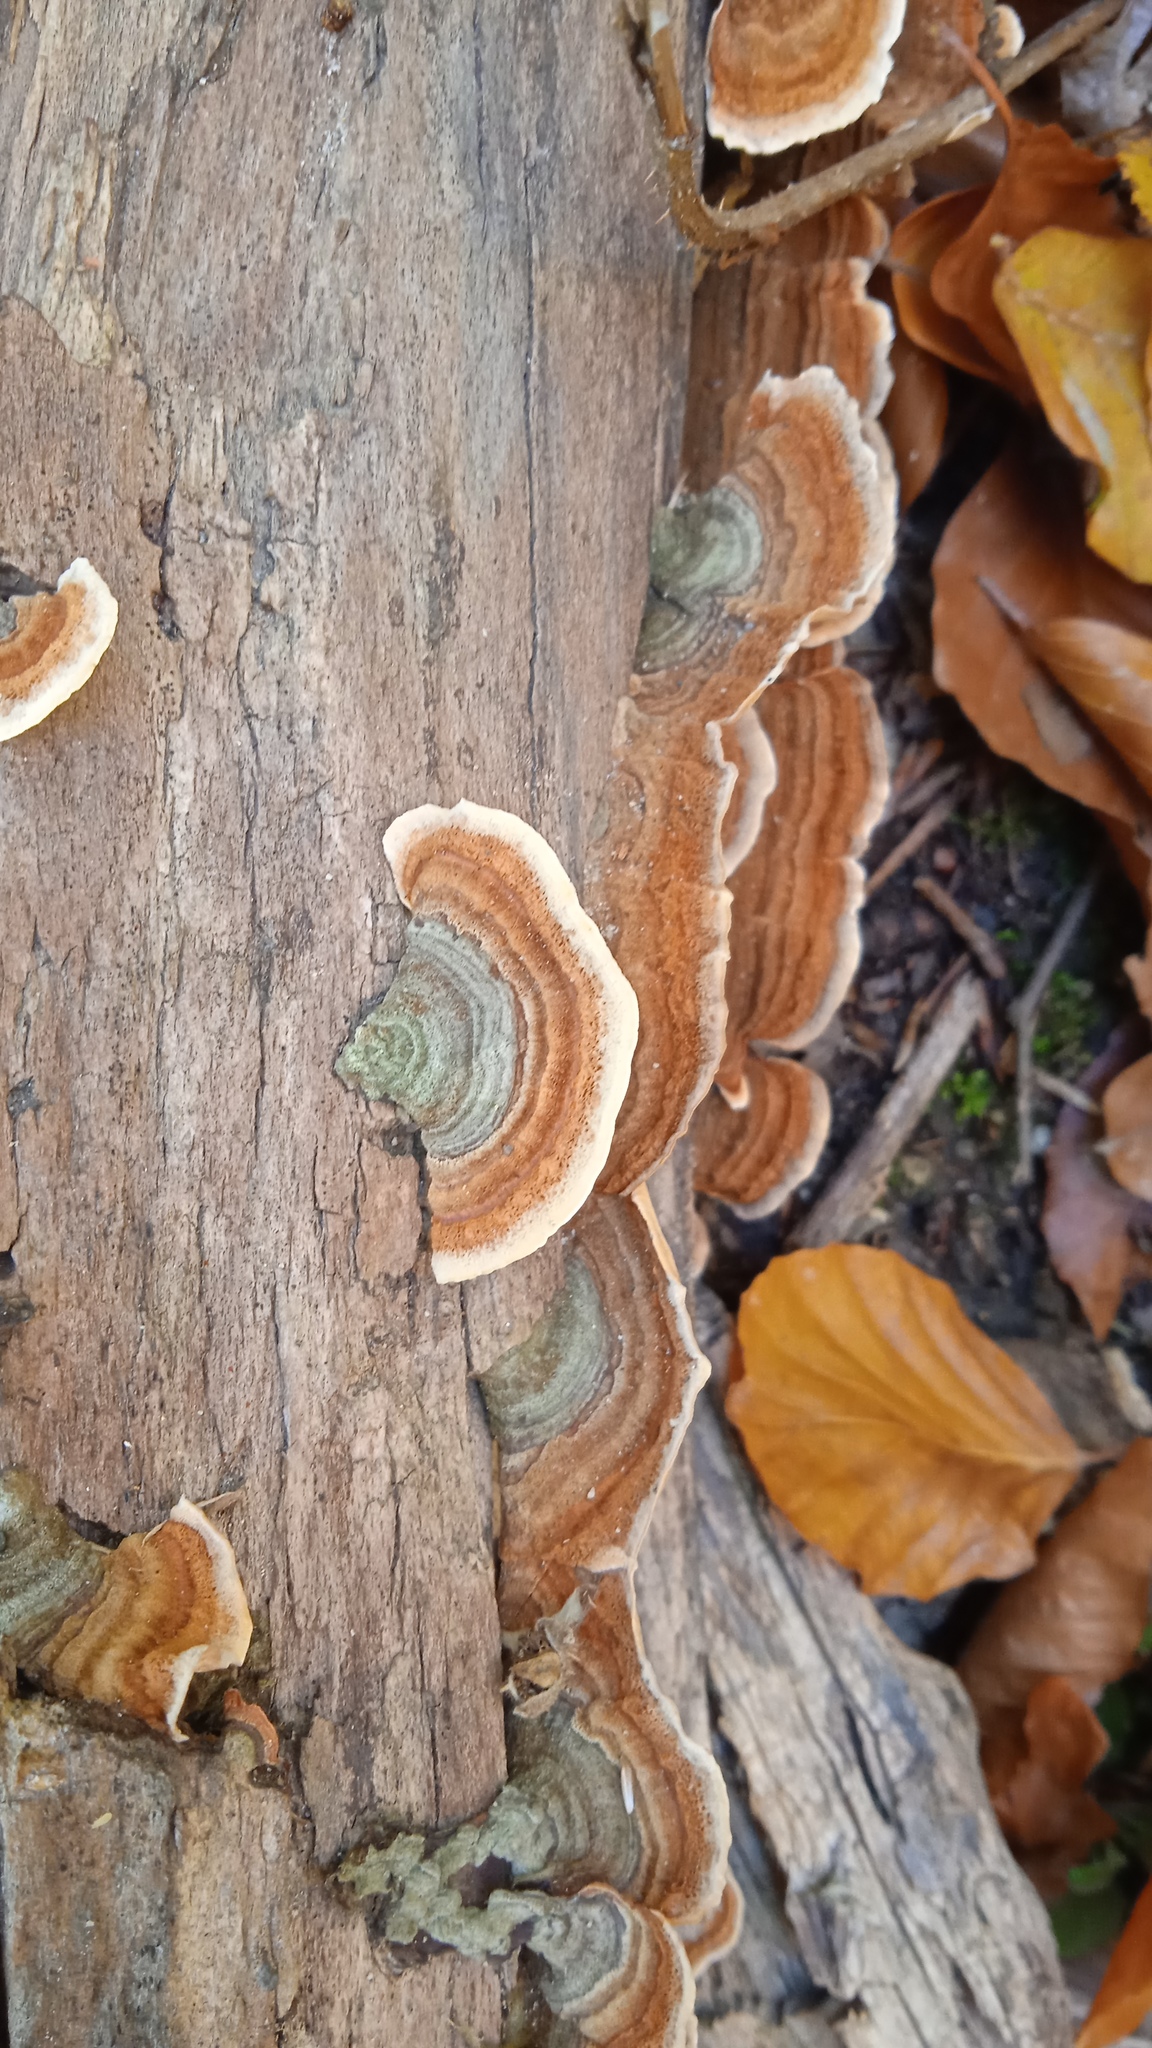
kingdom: Fungi
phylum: Basidiomycota
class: Agaricomycetes
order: Russulales
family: Stereaceae
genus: Stereum
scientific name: Stereum subtomentosum
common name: Yellowing curtain crust
